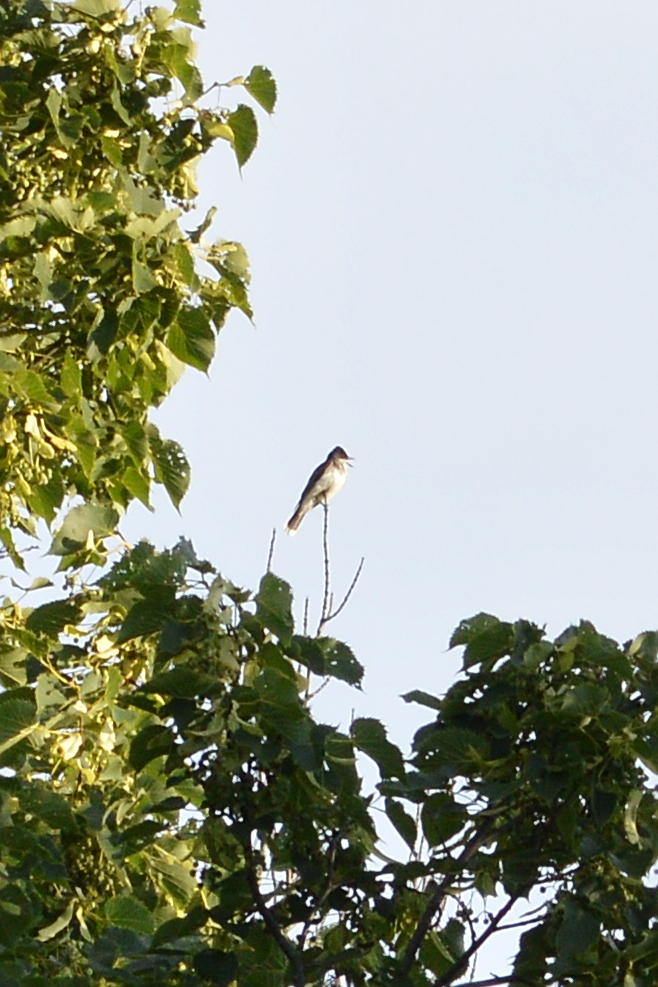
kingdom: Animalia
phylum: Chordata
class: Aves
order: Passeriformes
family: Tyrannidae
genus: Tyrannus
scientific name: Tyrannus tyrannus
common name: Eastern kingbird
